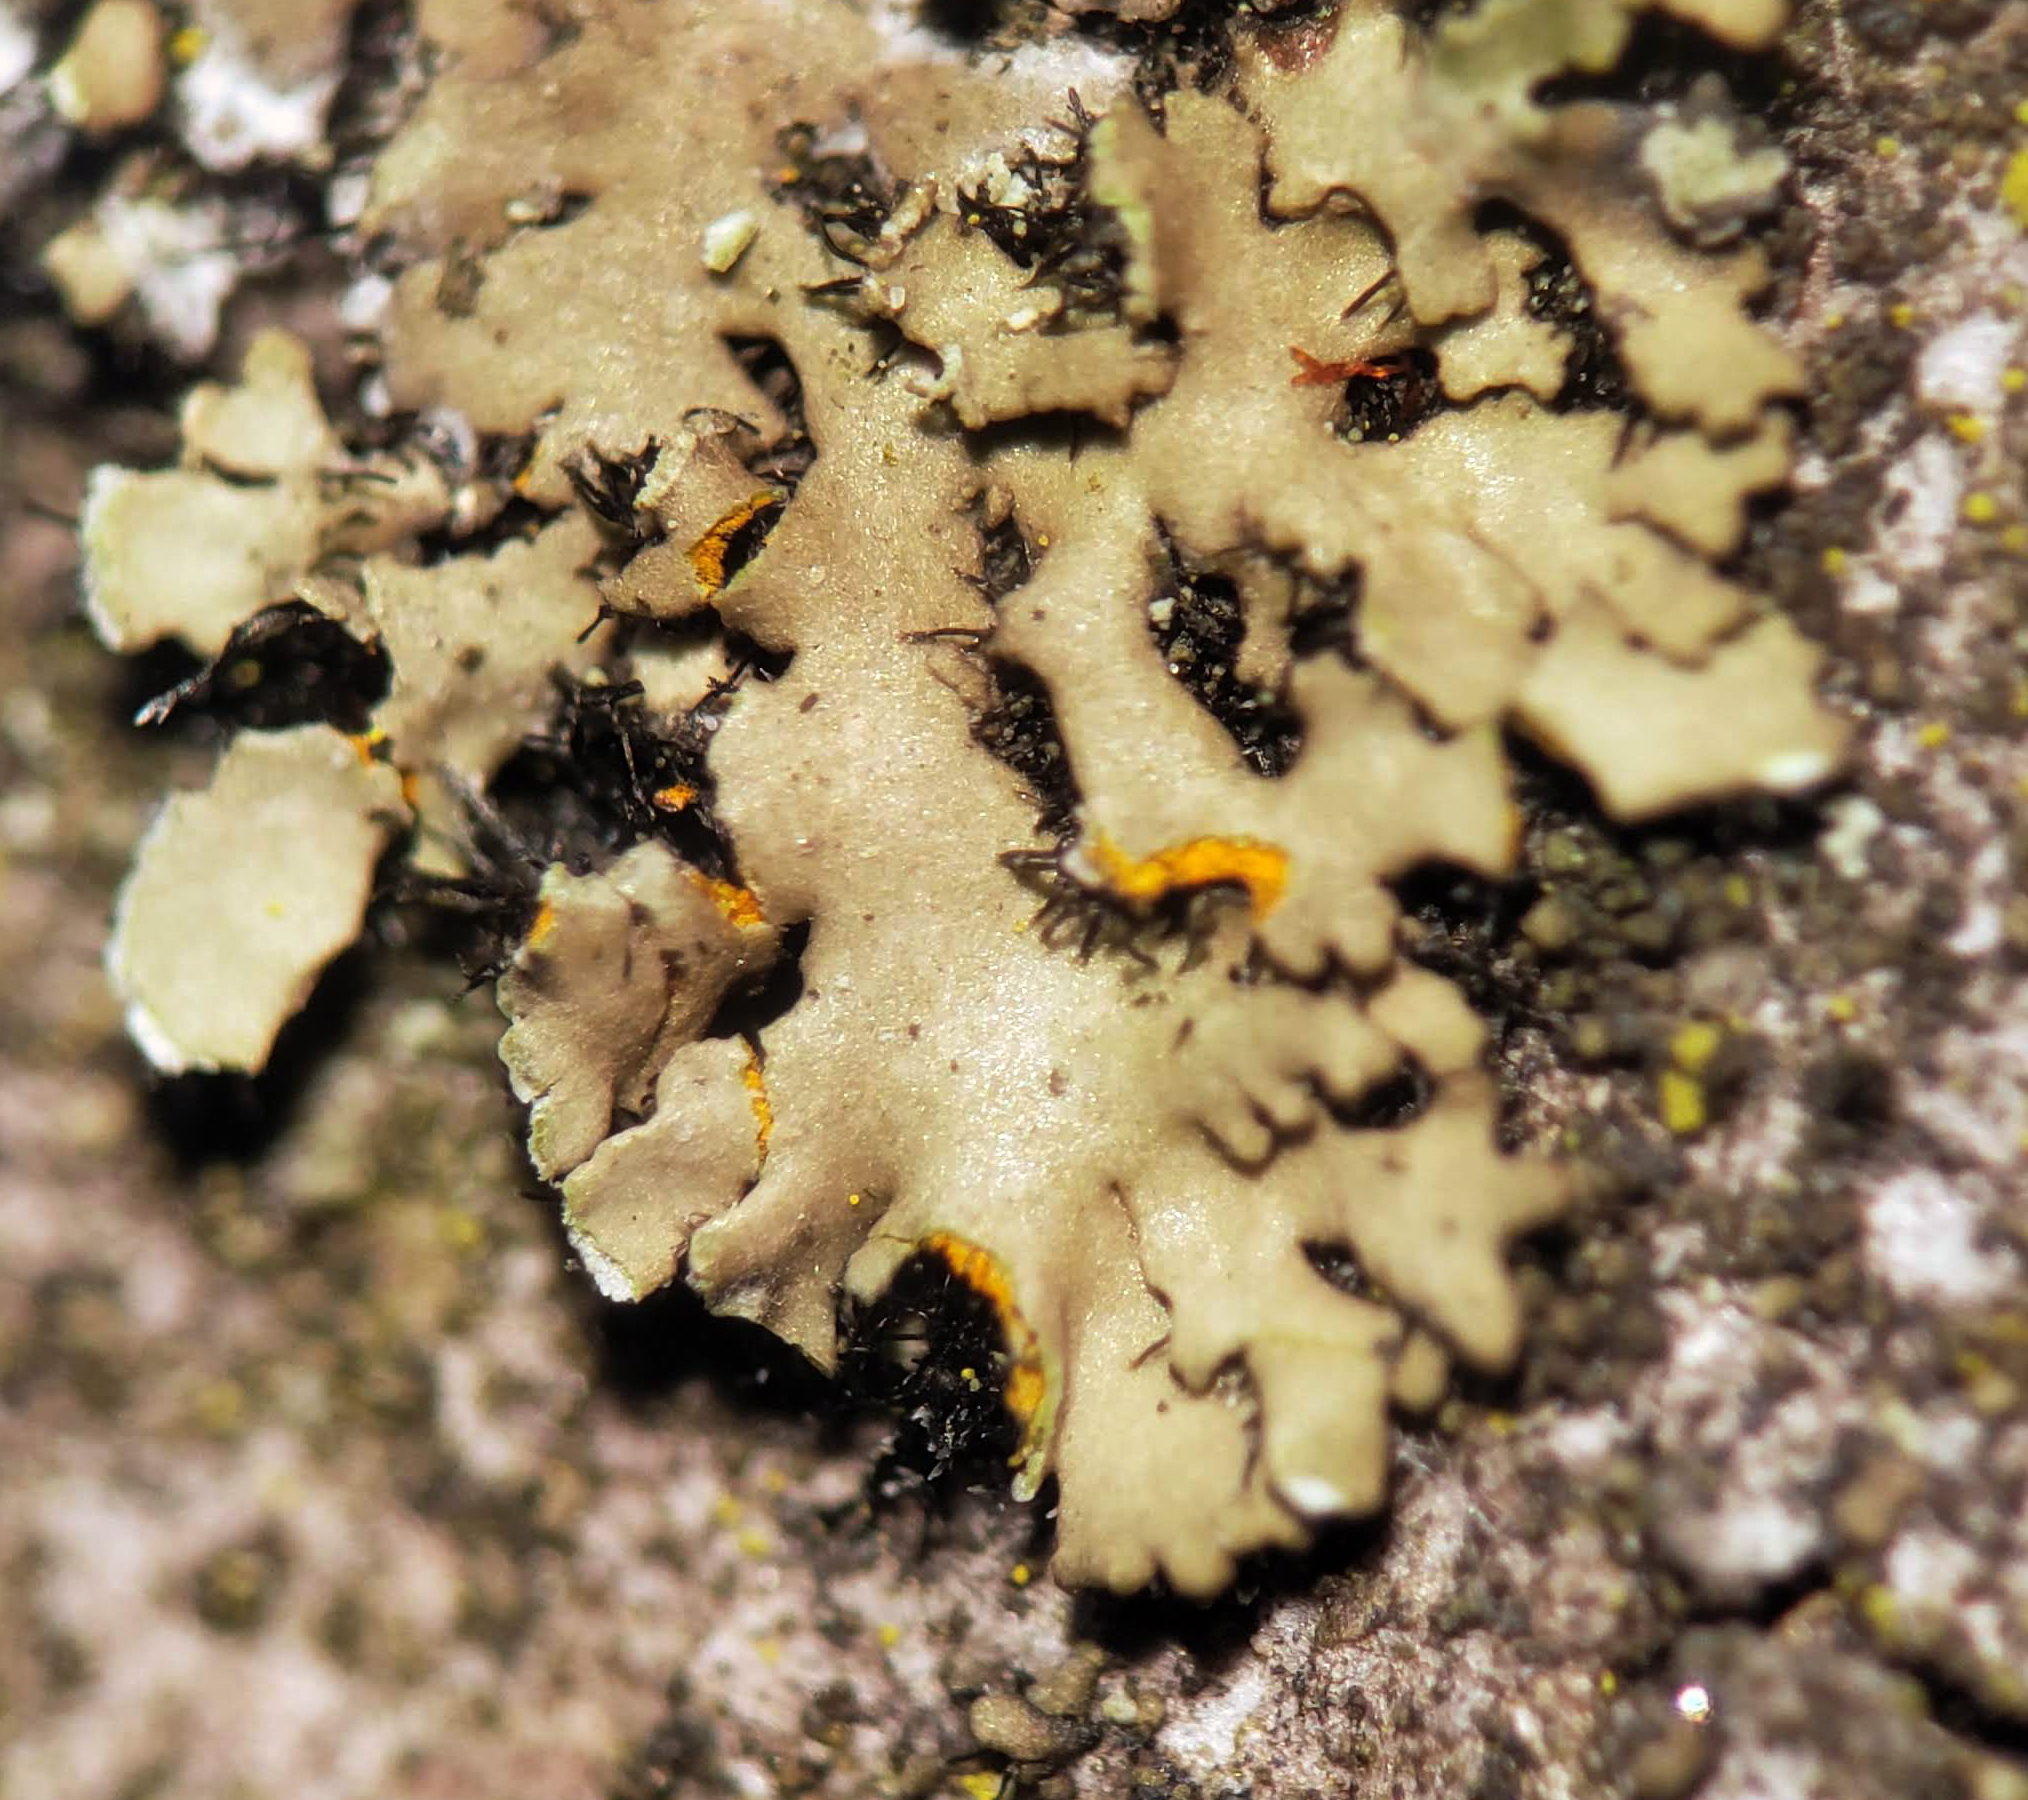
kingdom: Fungi
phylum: Ascomycota
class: Lecanoromycetes
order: Caliciales
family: Physciaceae
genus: Phaeophyscia
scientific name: Phaeophyscia rubropulchra
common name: Orange-cored shadow lichen
